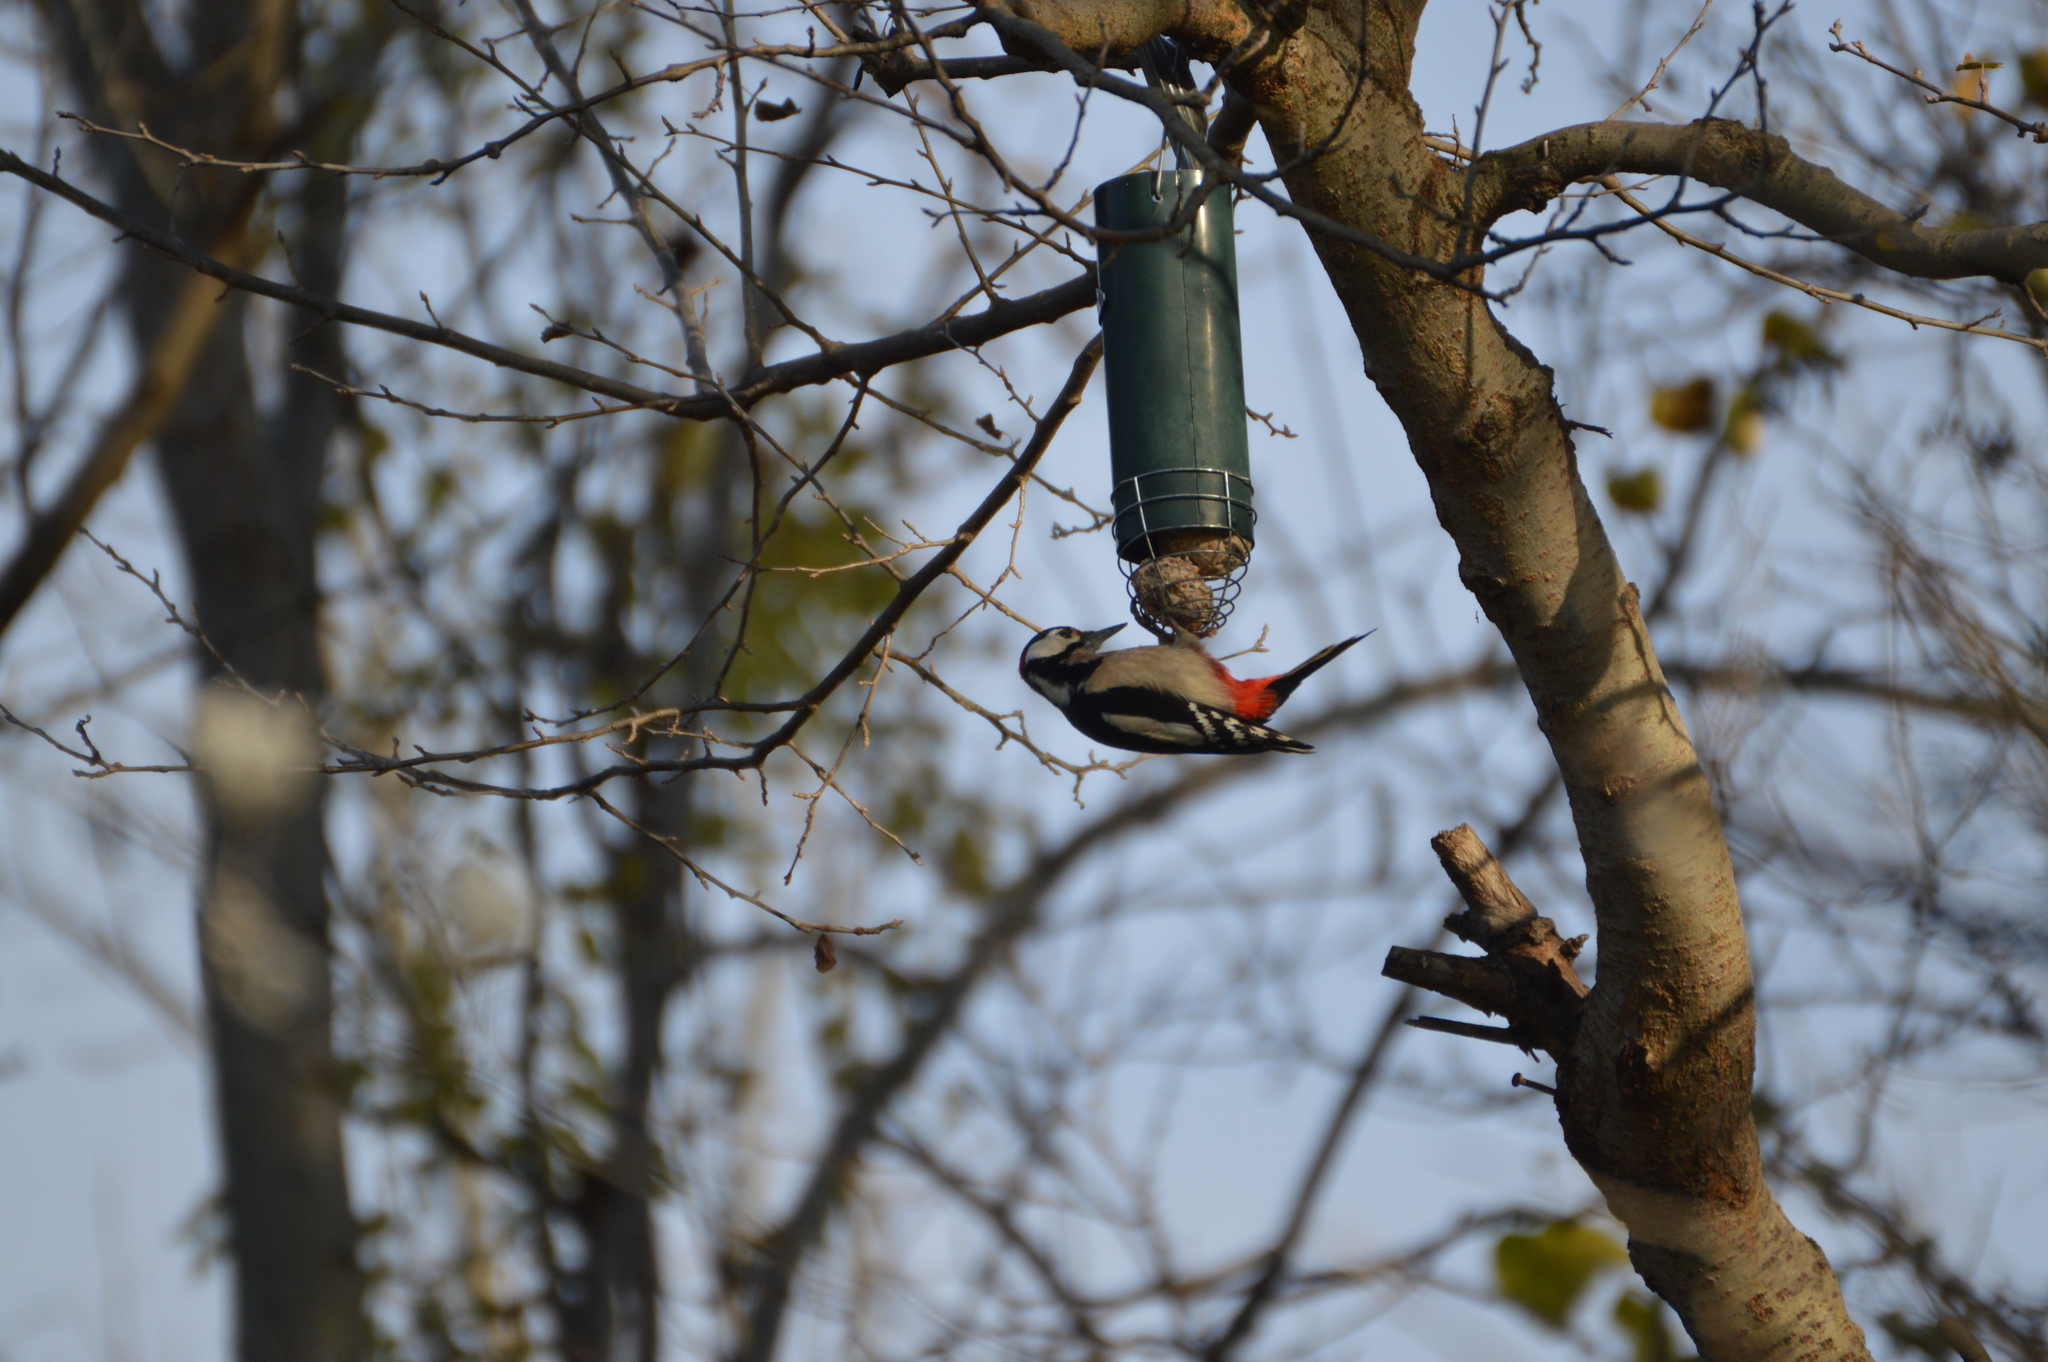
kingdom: Animalia
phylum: Chordata
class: Aves
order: Piciformes
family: Picidae
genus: Dendrocopos
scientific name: Dendrocopos major
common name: Great spotted woodpecker
